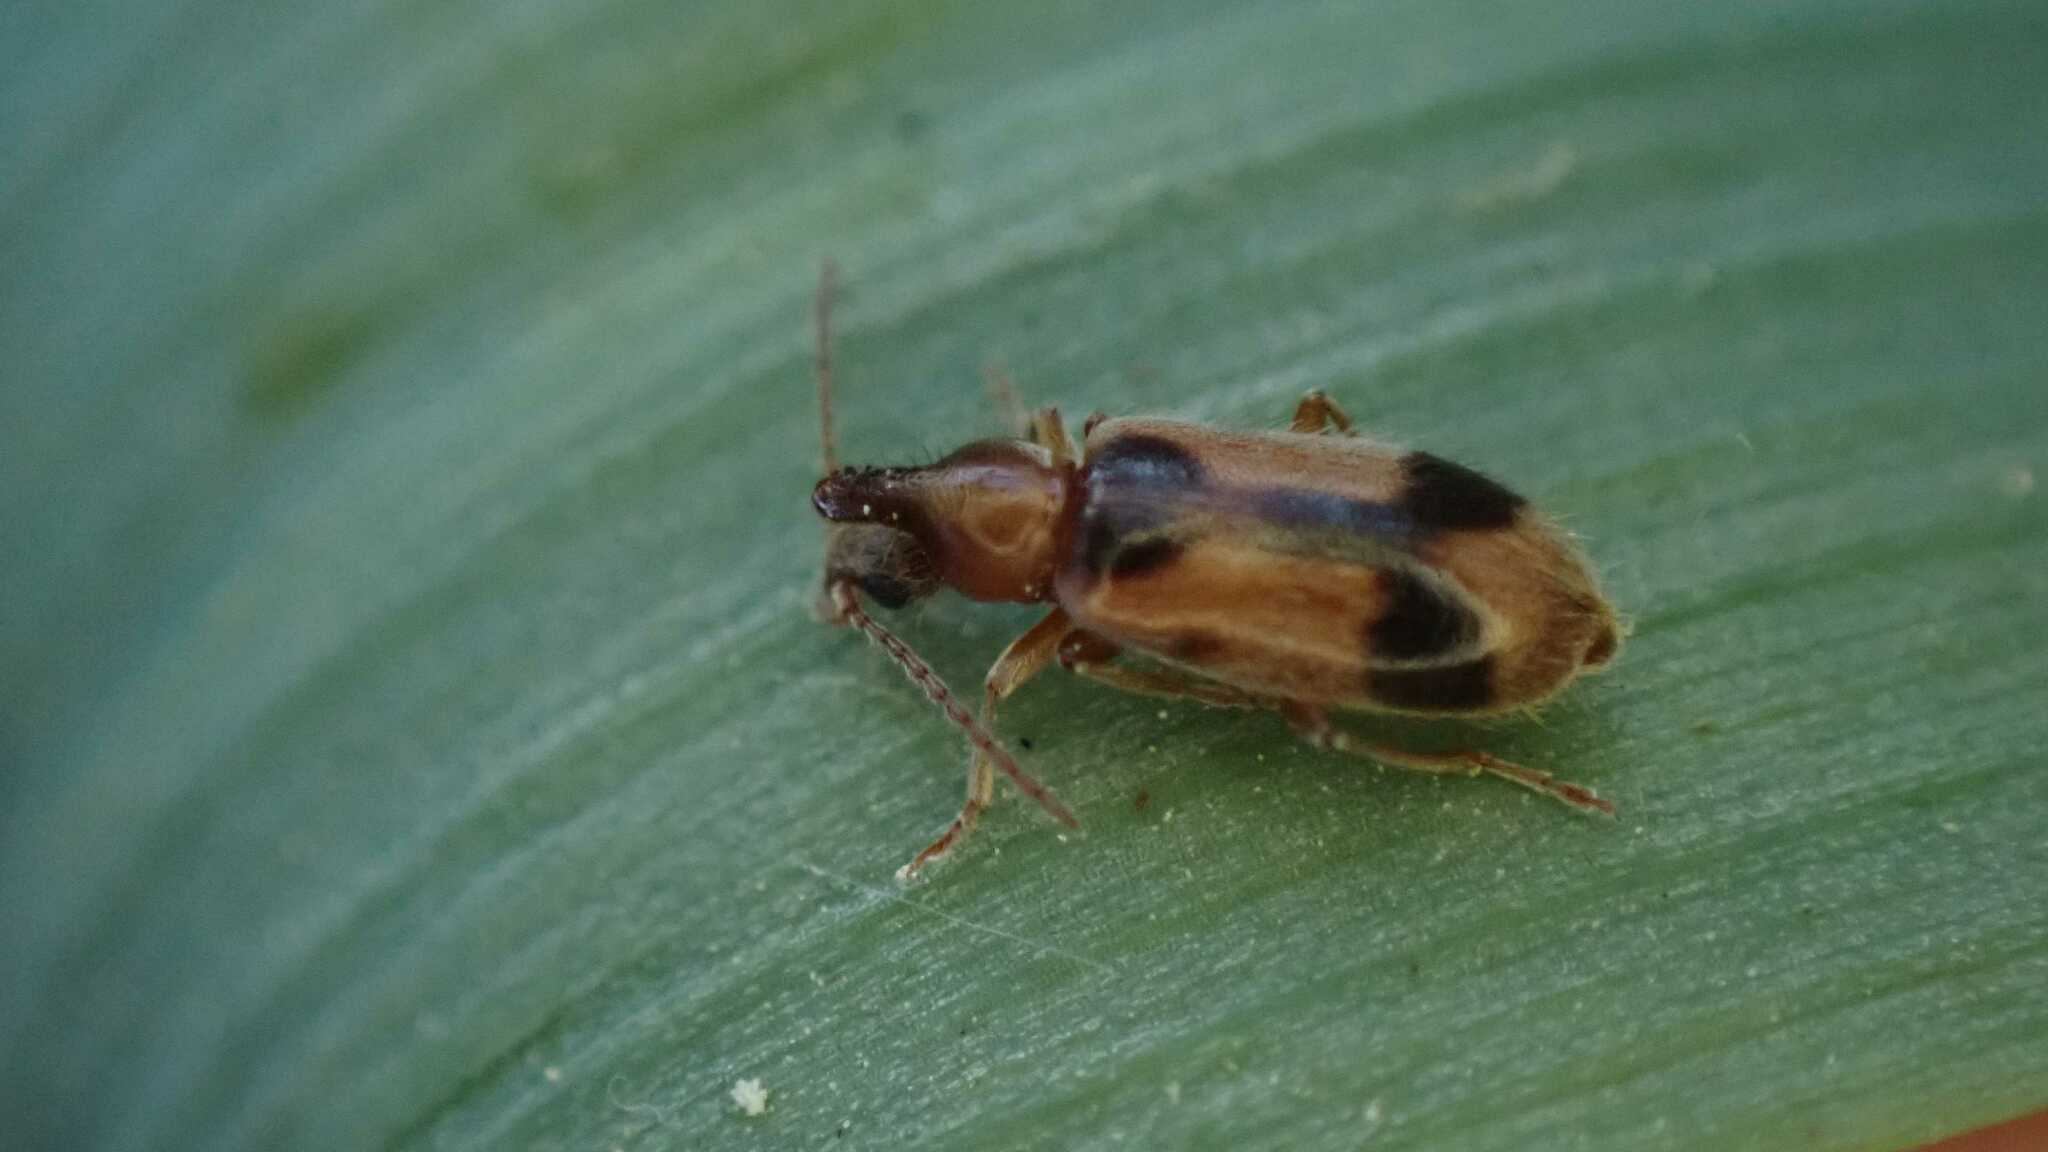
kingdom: Animalia
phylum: Arthropoda
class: Insecta
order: Coleoptera
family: Anthicidae
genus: Notoxus
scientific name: Notoxus monoceros
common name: Monoceros beetle
